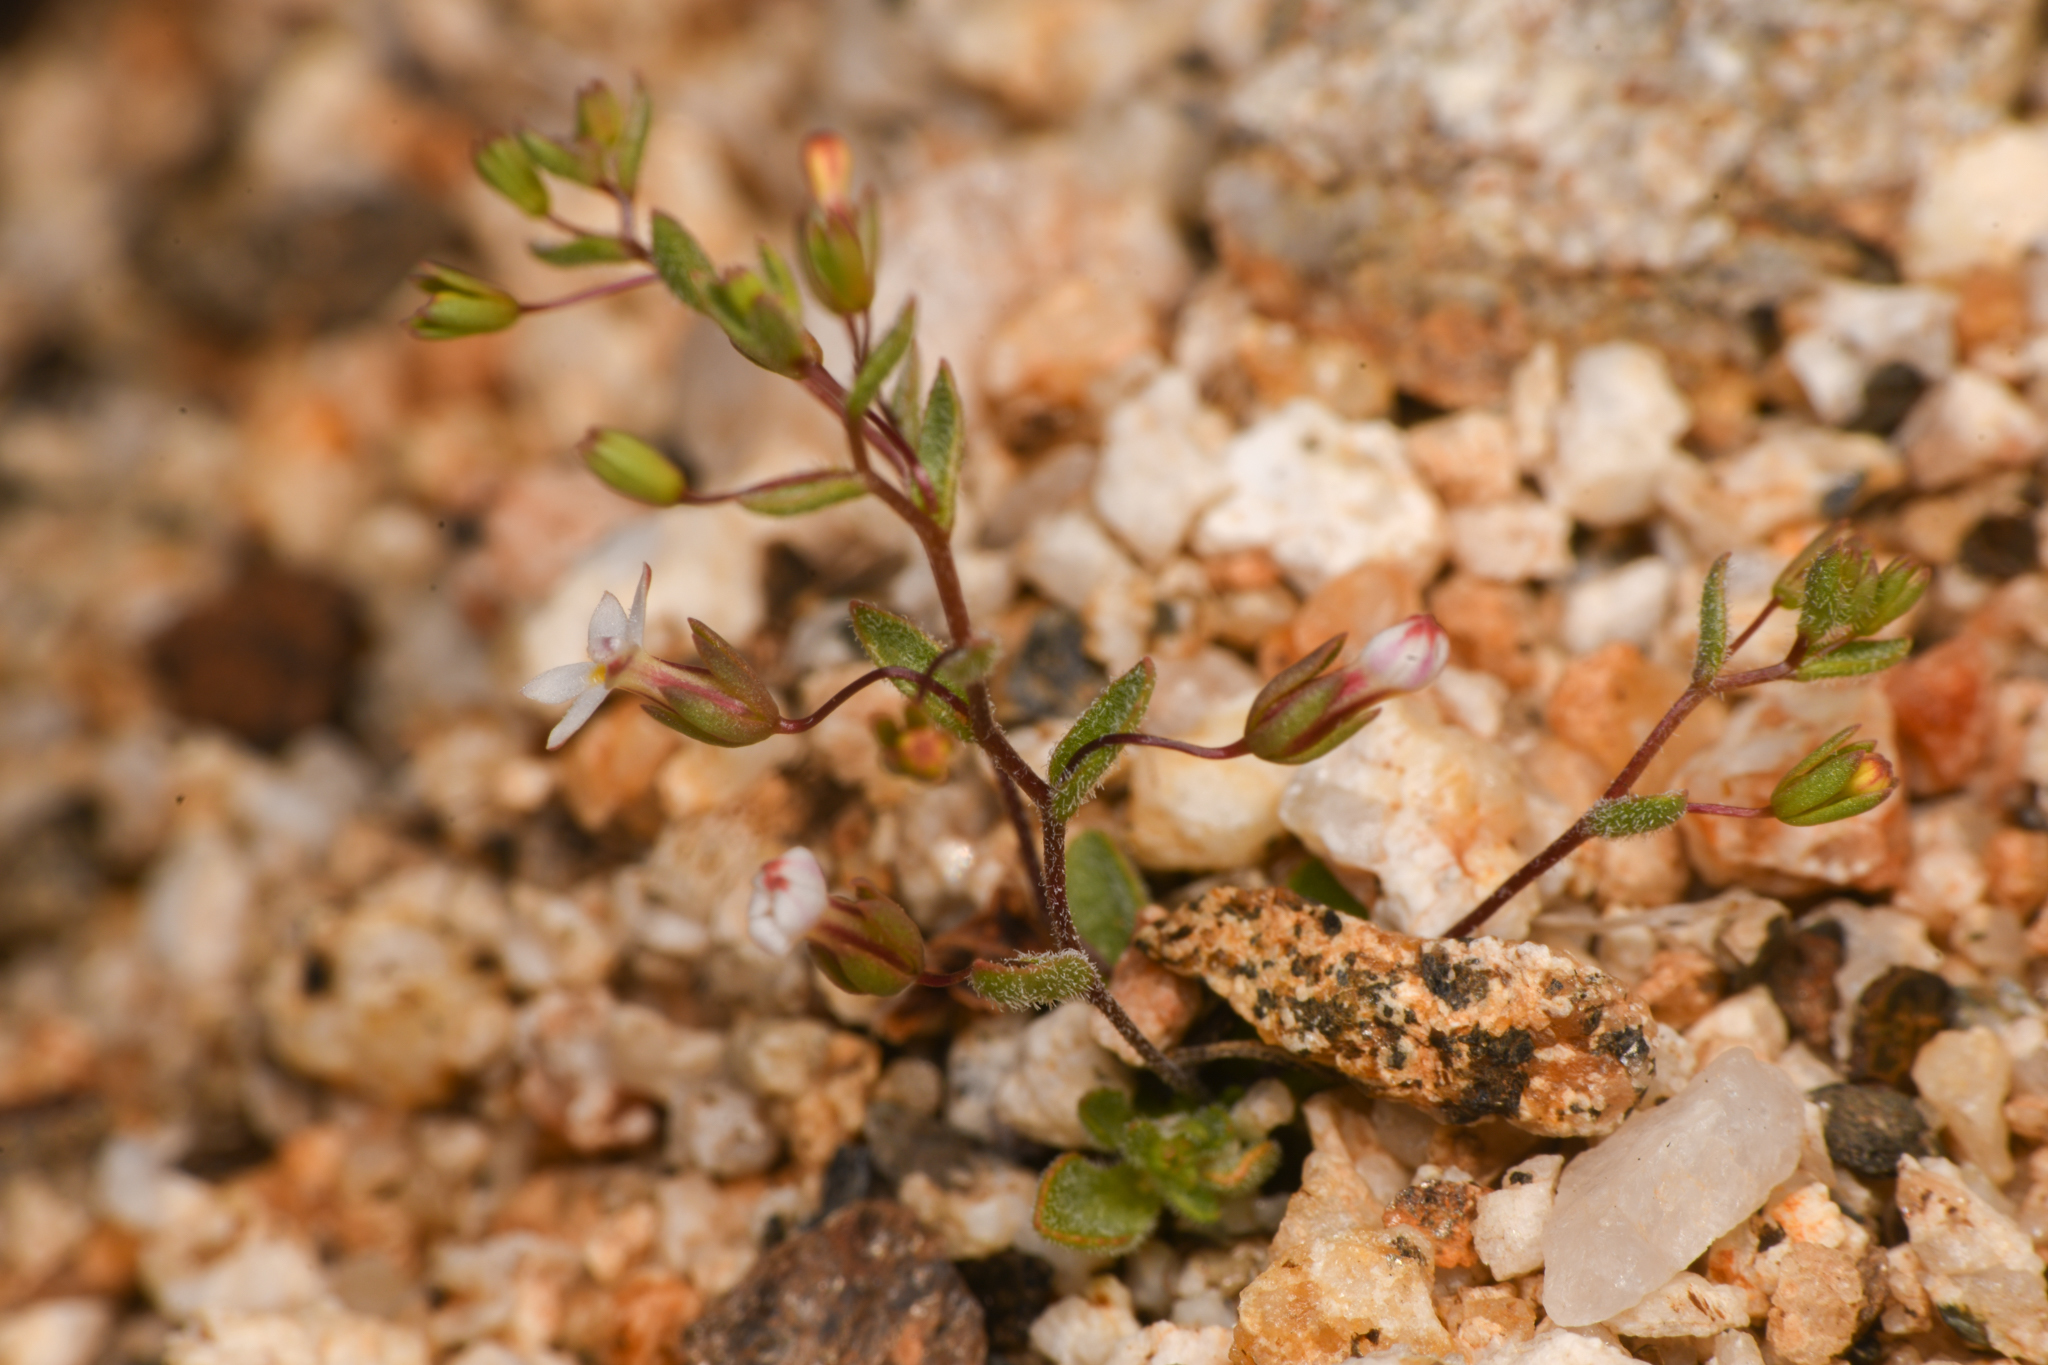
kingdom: Plantae
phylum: Tracheophyta
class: Magnoliopsida
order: Asterales
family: Campanulaceae
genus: Nemacladus
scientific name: Nemacladus breviflorus
